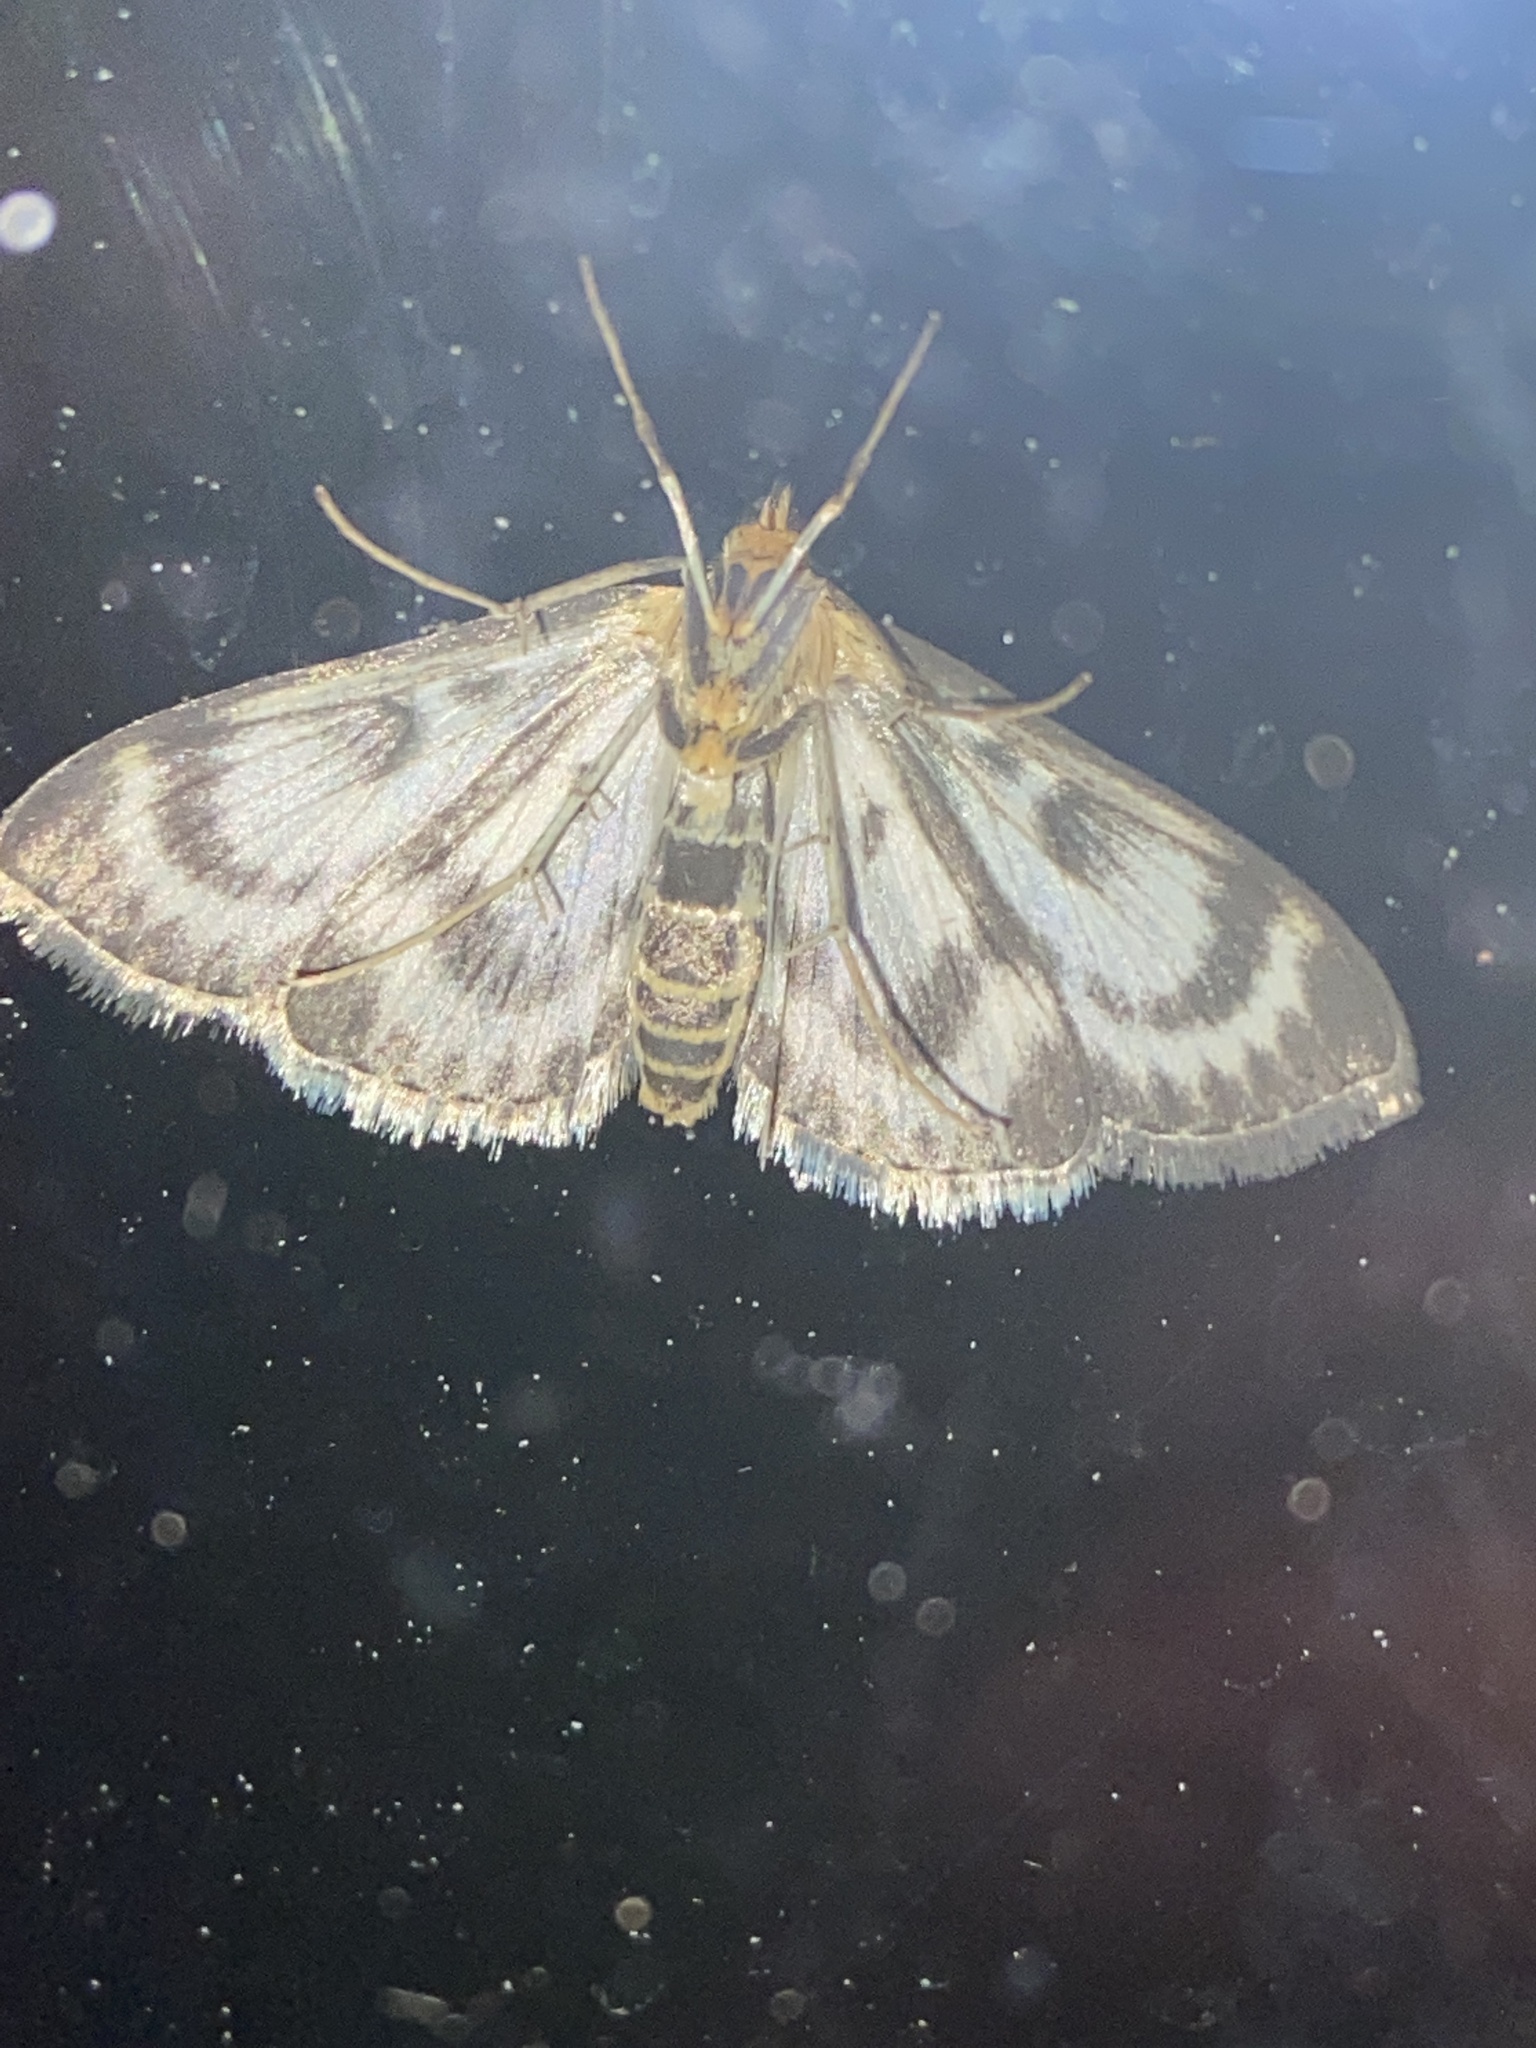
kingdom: Animalia
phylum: Arthropoda
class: Insecta
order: Lepidoptera
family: Crambidae
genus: Anania
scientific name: Anania hortulata
